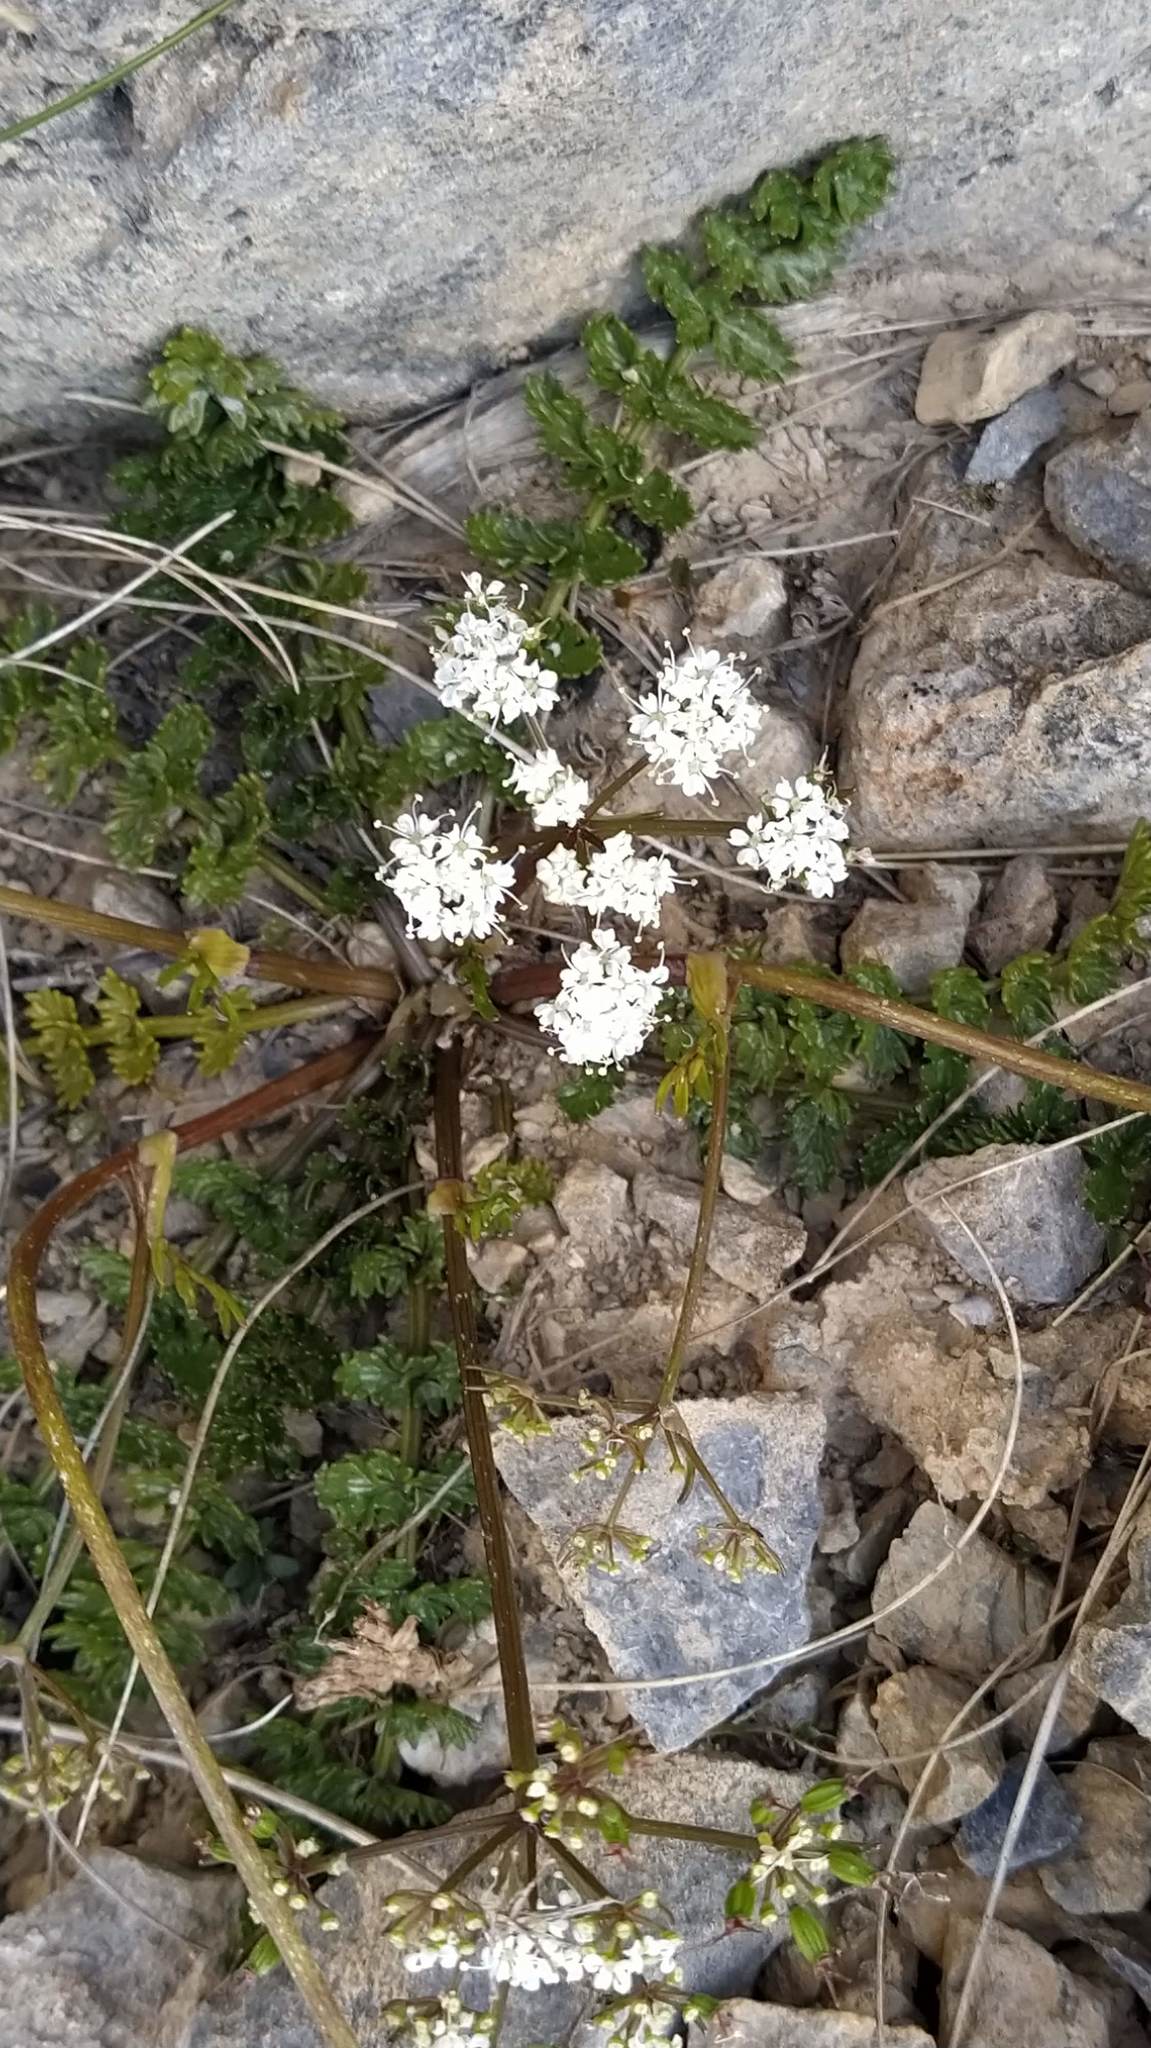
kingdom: Plantae
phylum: Tracheophyta
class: Magnoliopsida
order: Apiales
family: Apiaceae
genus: Gingidia
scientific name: Gingidia decipiens
